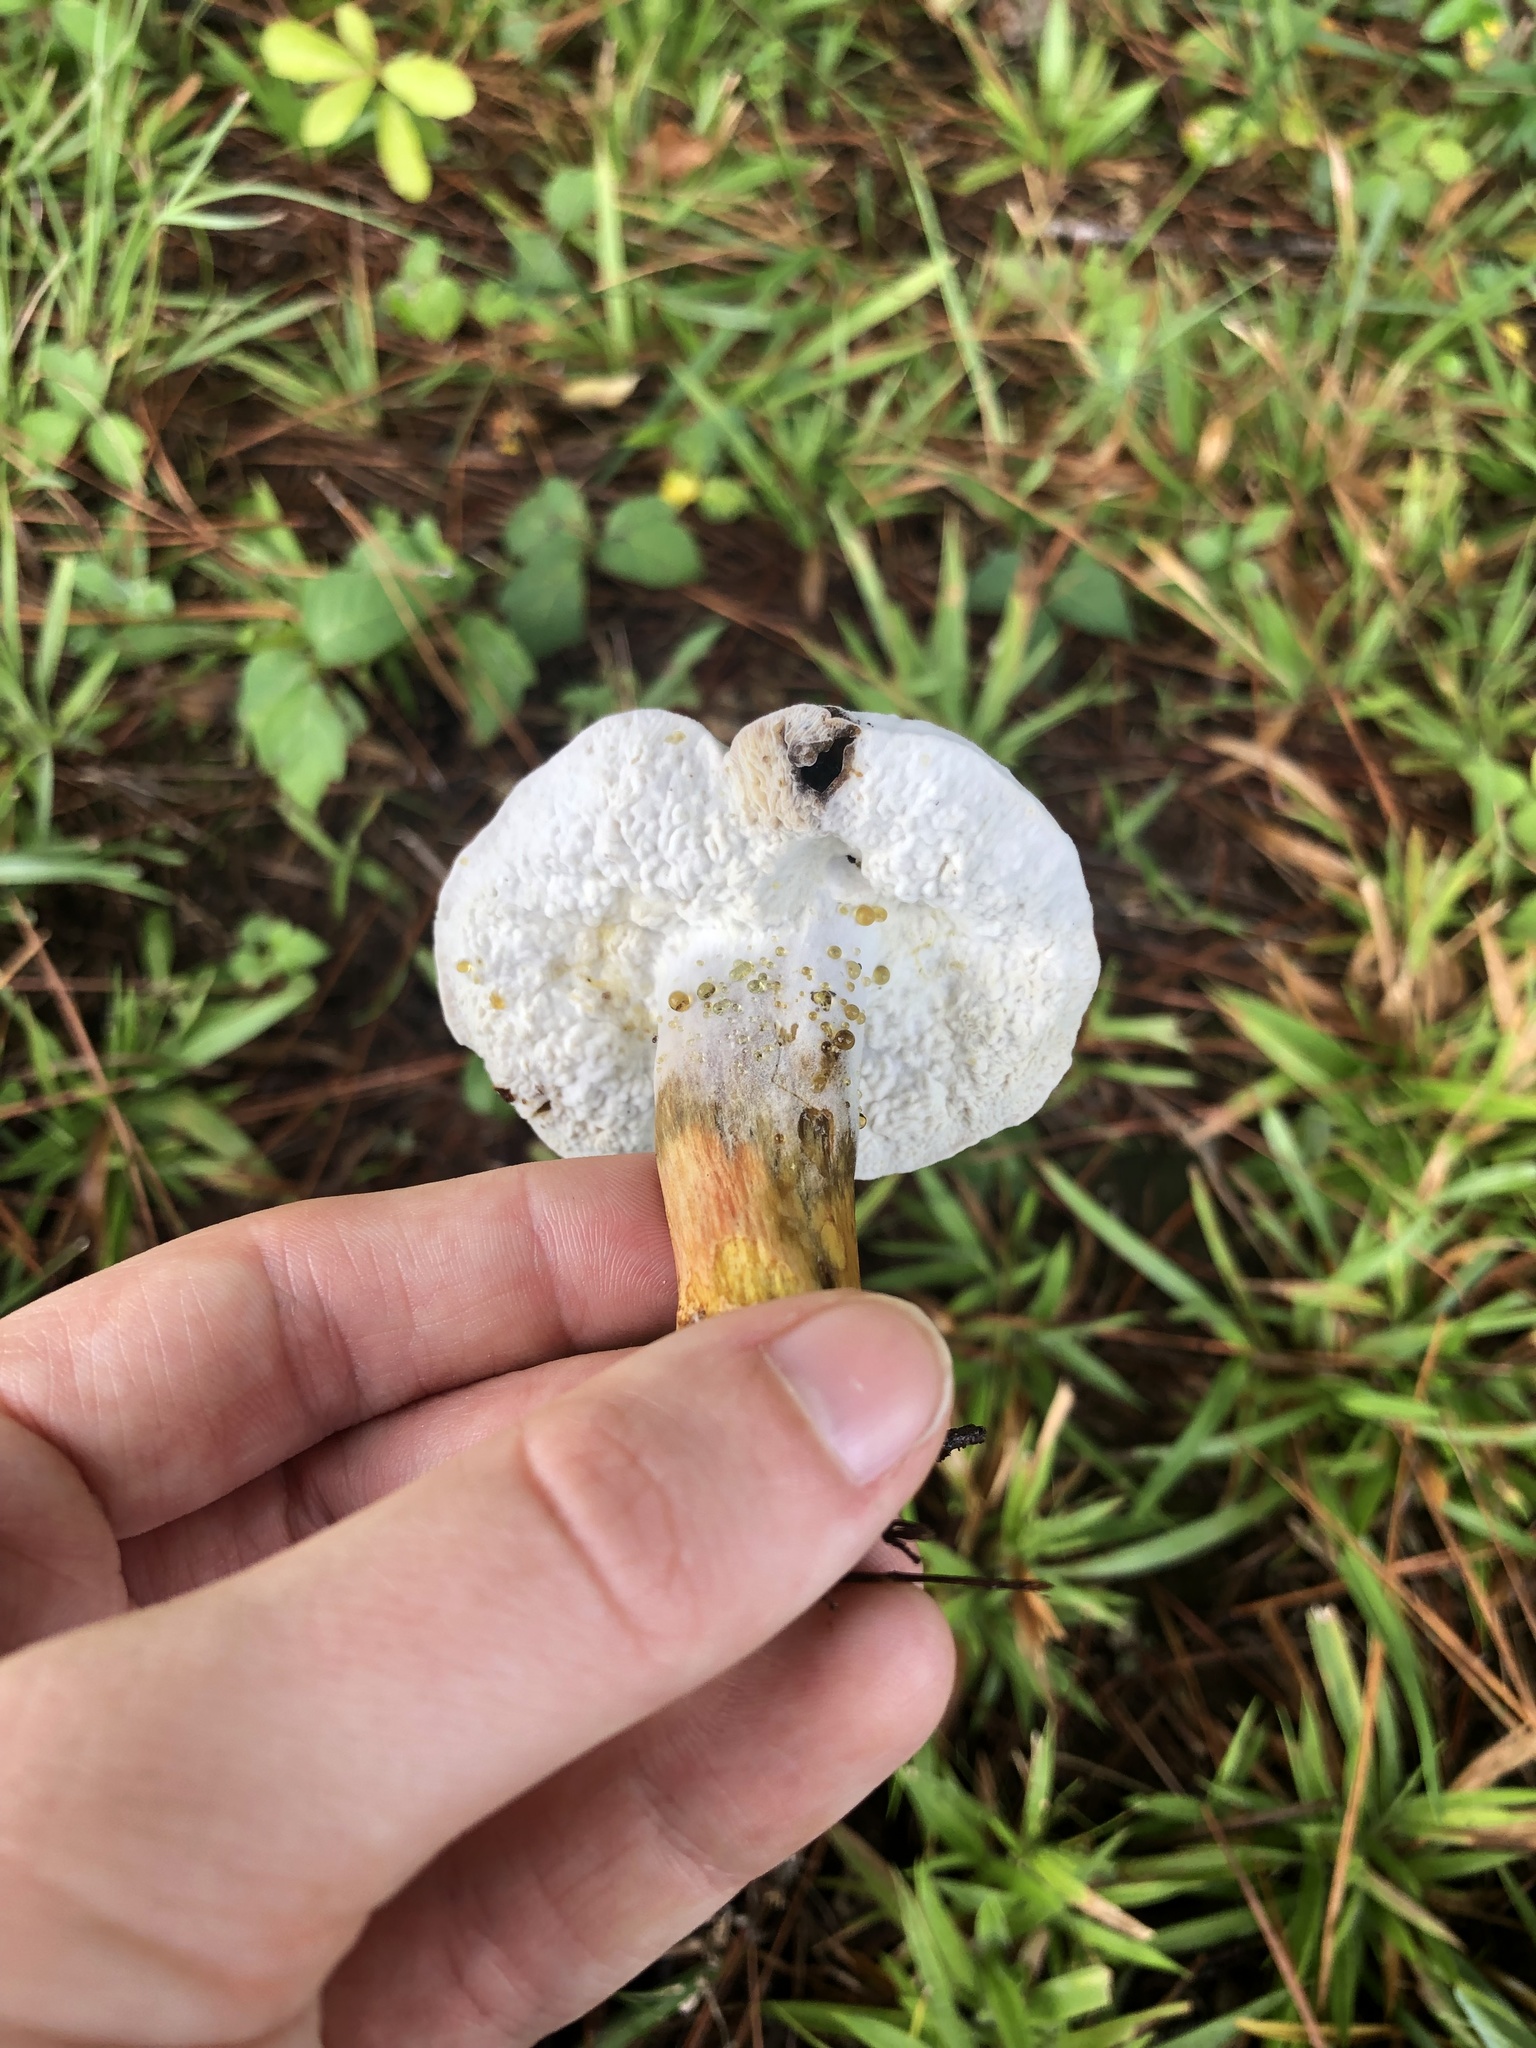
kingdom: Fungi
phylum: Ascomycota
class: Sordariomycetes
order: Hypocreales
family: Hypocreaceae
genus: Hypomyces
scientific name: Hypomyces chrysospermus
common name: Bolete mould
